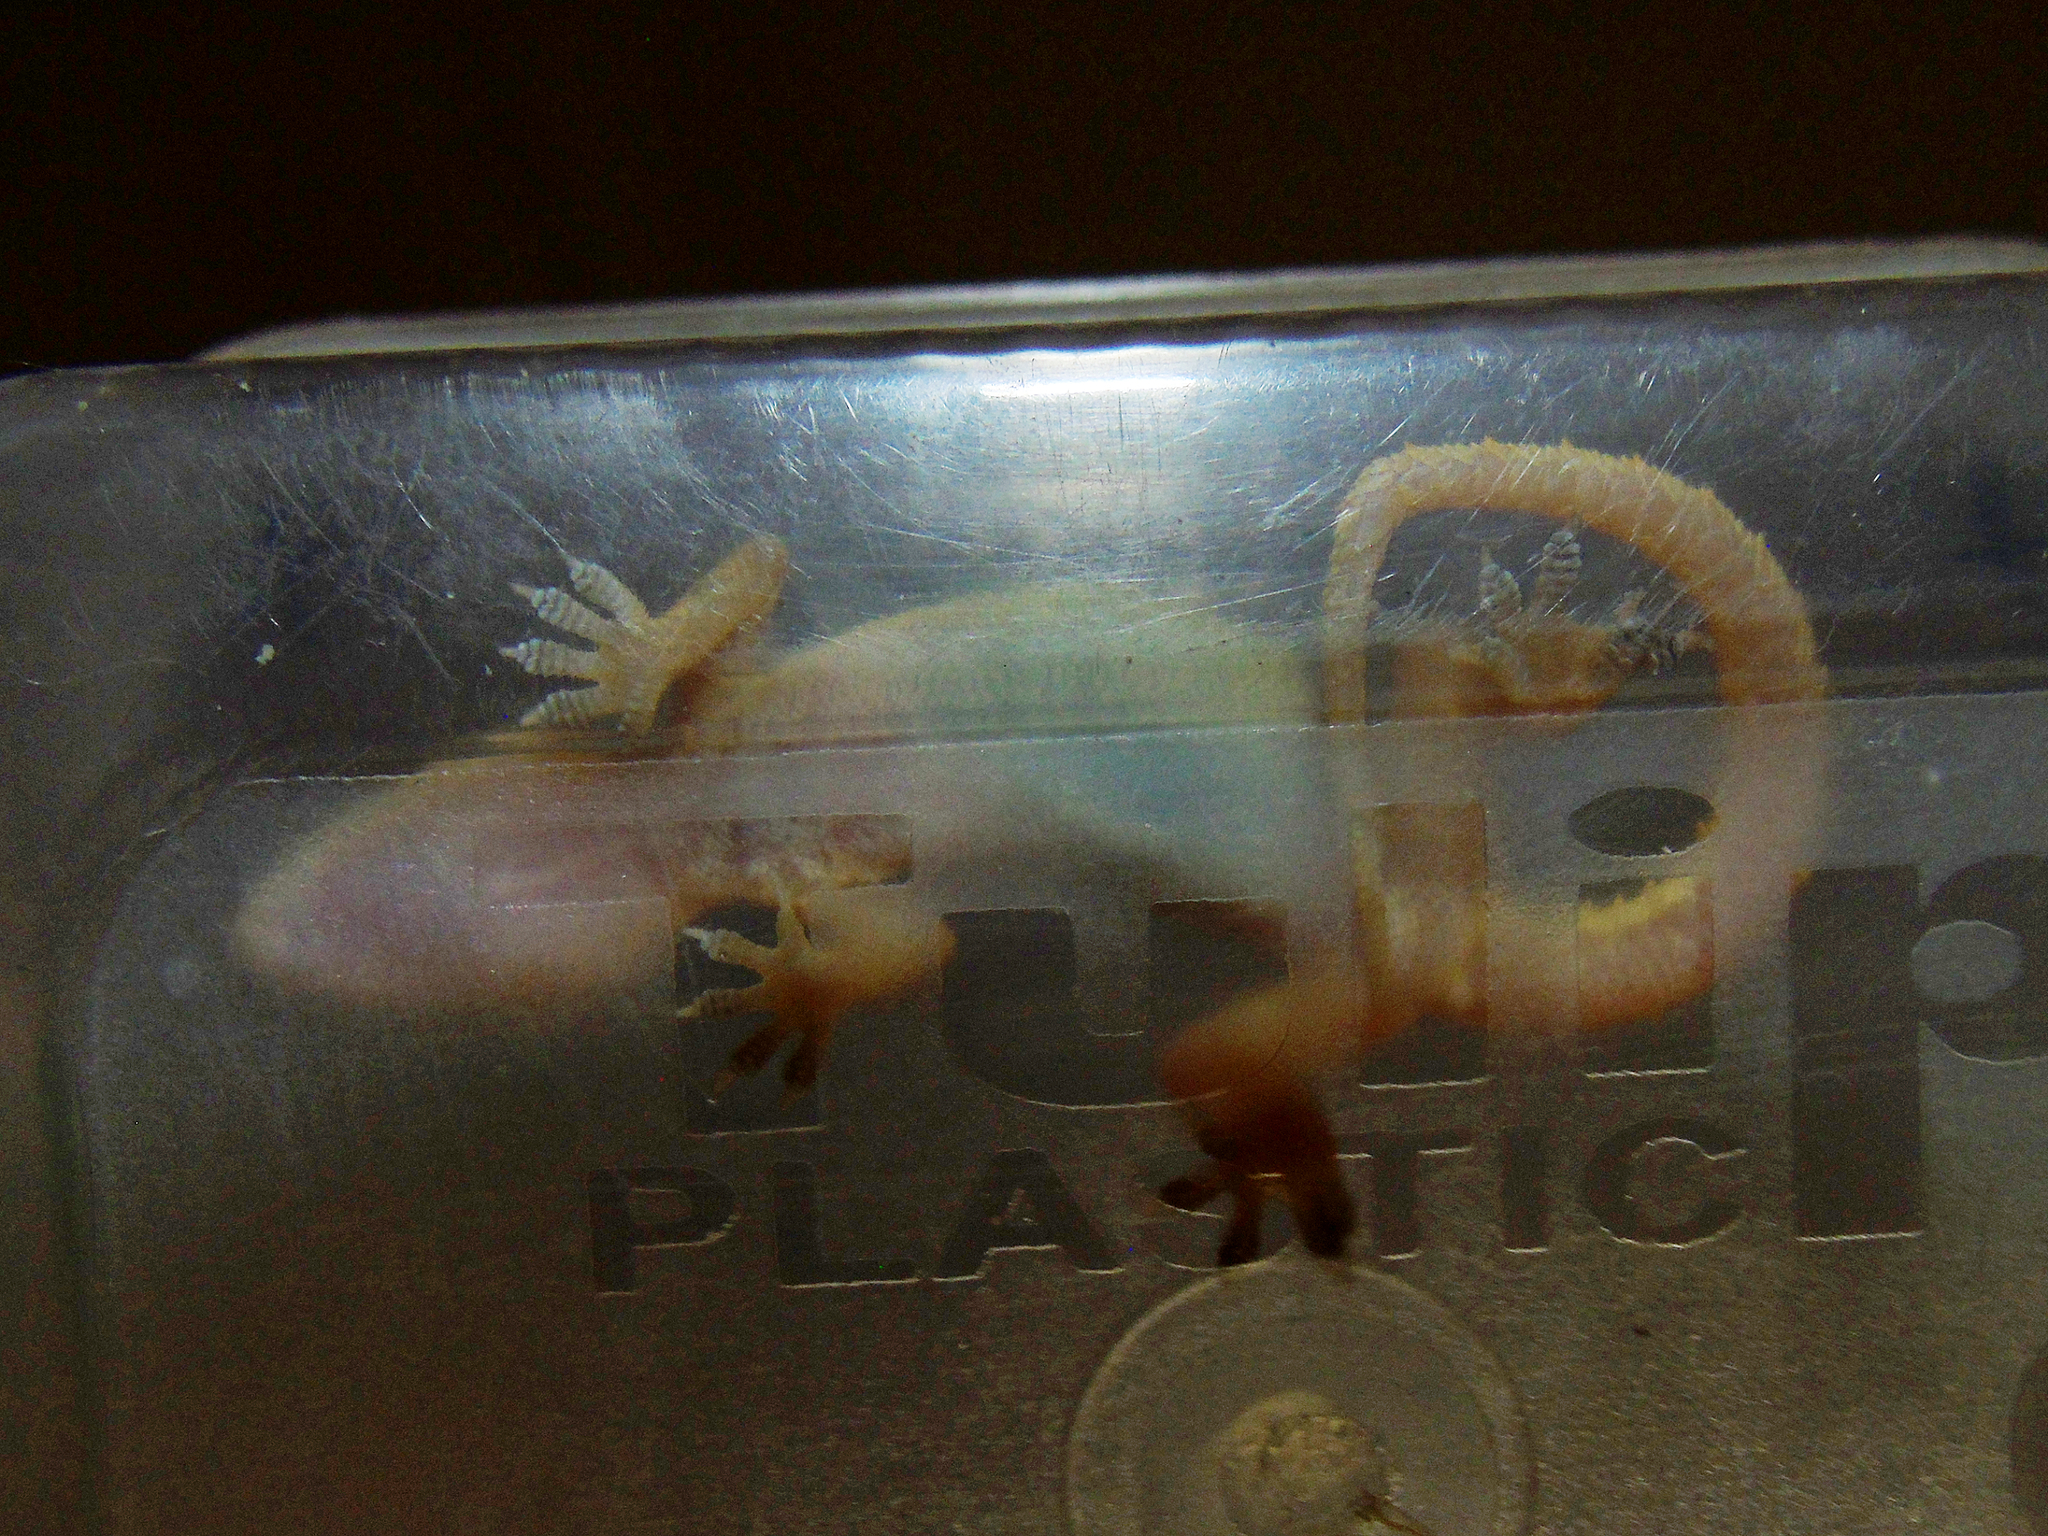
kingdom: Animalia
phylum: Chordata
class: Squamata
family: Gekkonidae
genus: Hemidactylus
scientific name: Hemidactylus kushmorensis
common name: Kushmore house gecko
